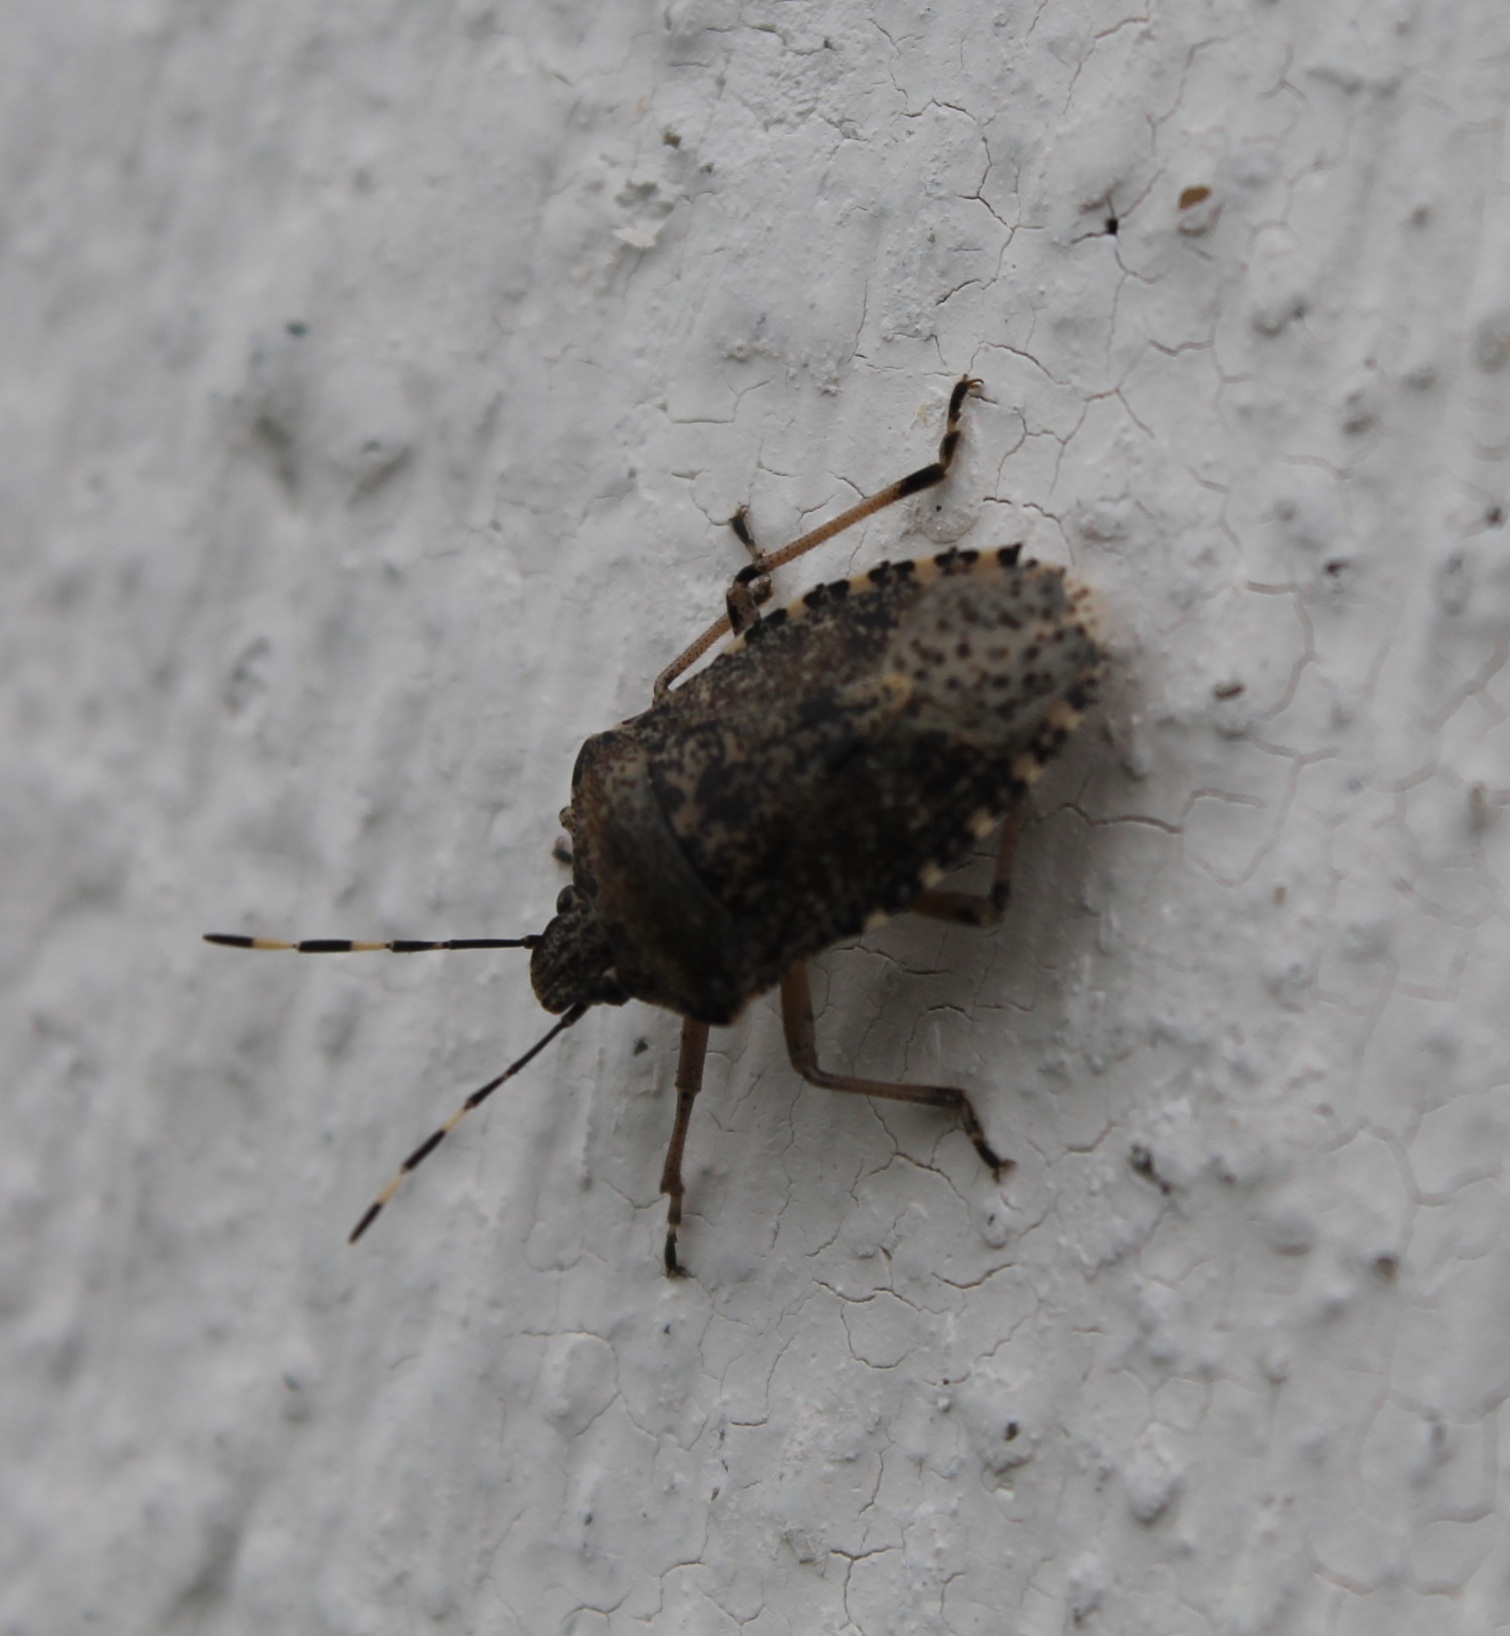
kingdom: Animalia
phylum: Arthropoda
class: Insecta
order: Hemiptera
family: Pentatomidae
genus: Rhaphigaster
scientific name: Rhaphigaster nebulosa
